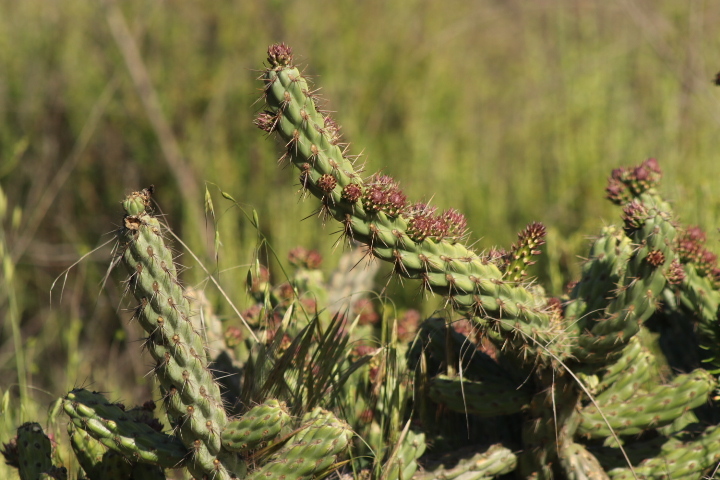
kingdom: Plantae
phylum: Tracheophyta
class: Magnoliopsida
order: Caryophyllales
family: Cactaceae
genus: Cylindropuntia
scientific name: Cylindropuntia californica
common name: Snake cholla
